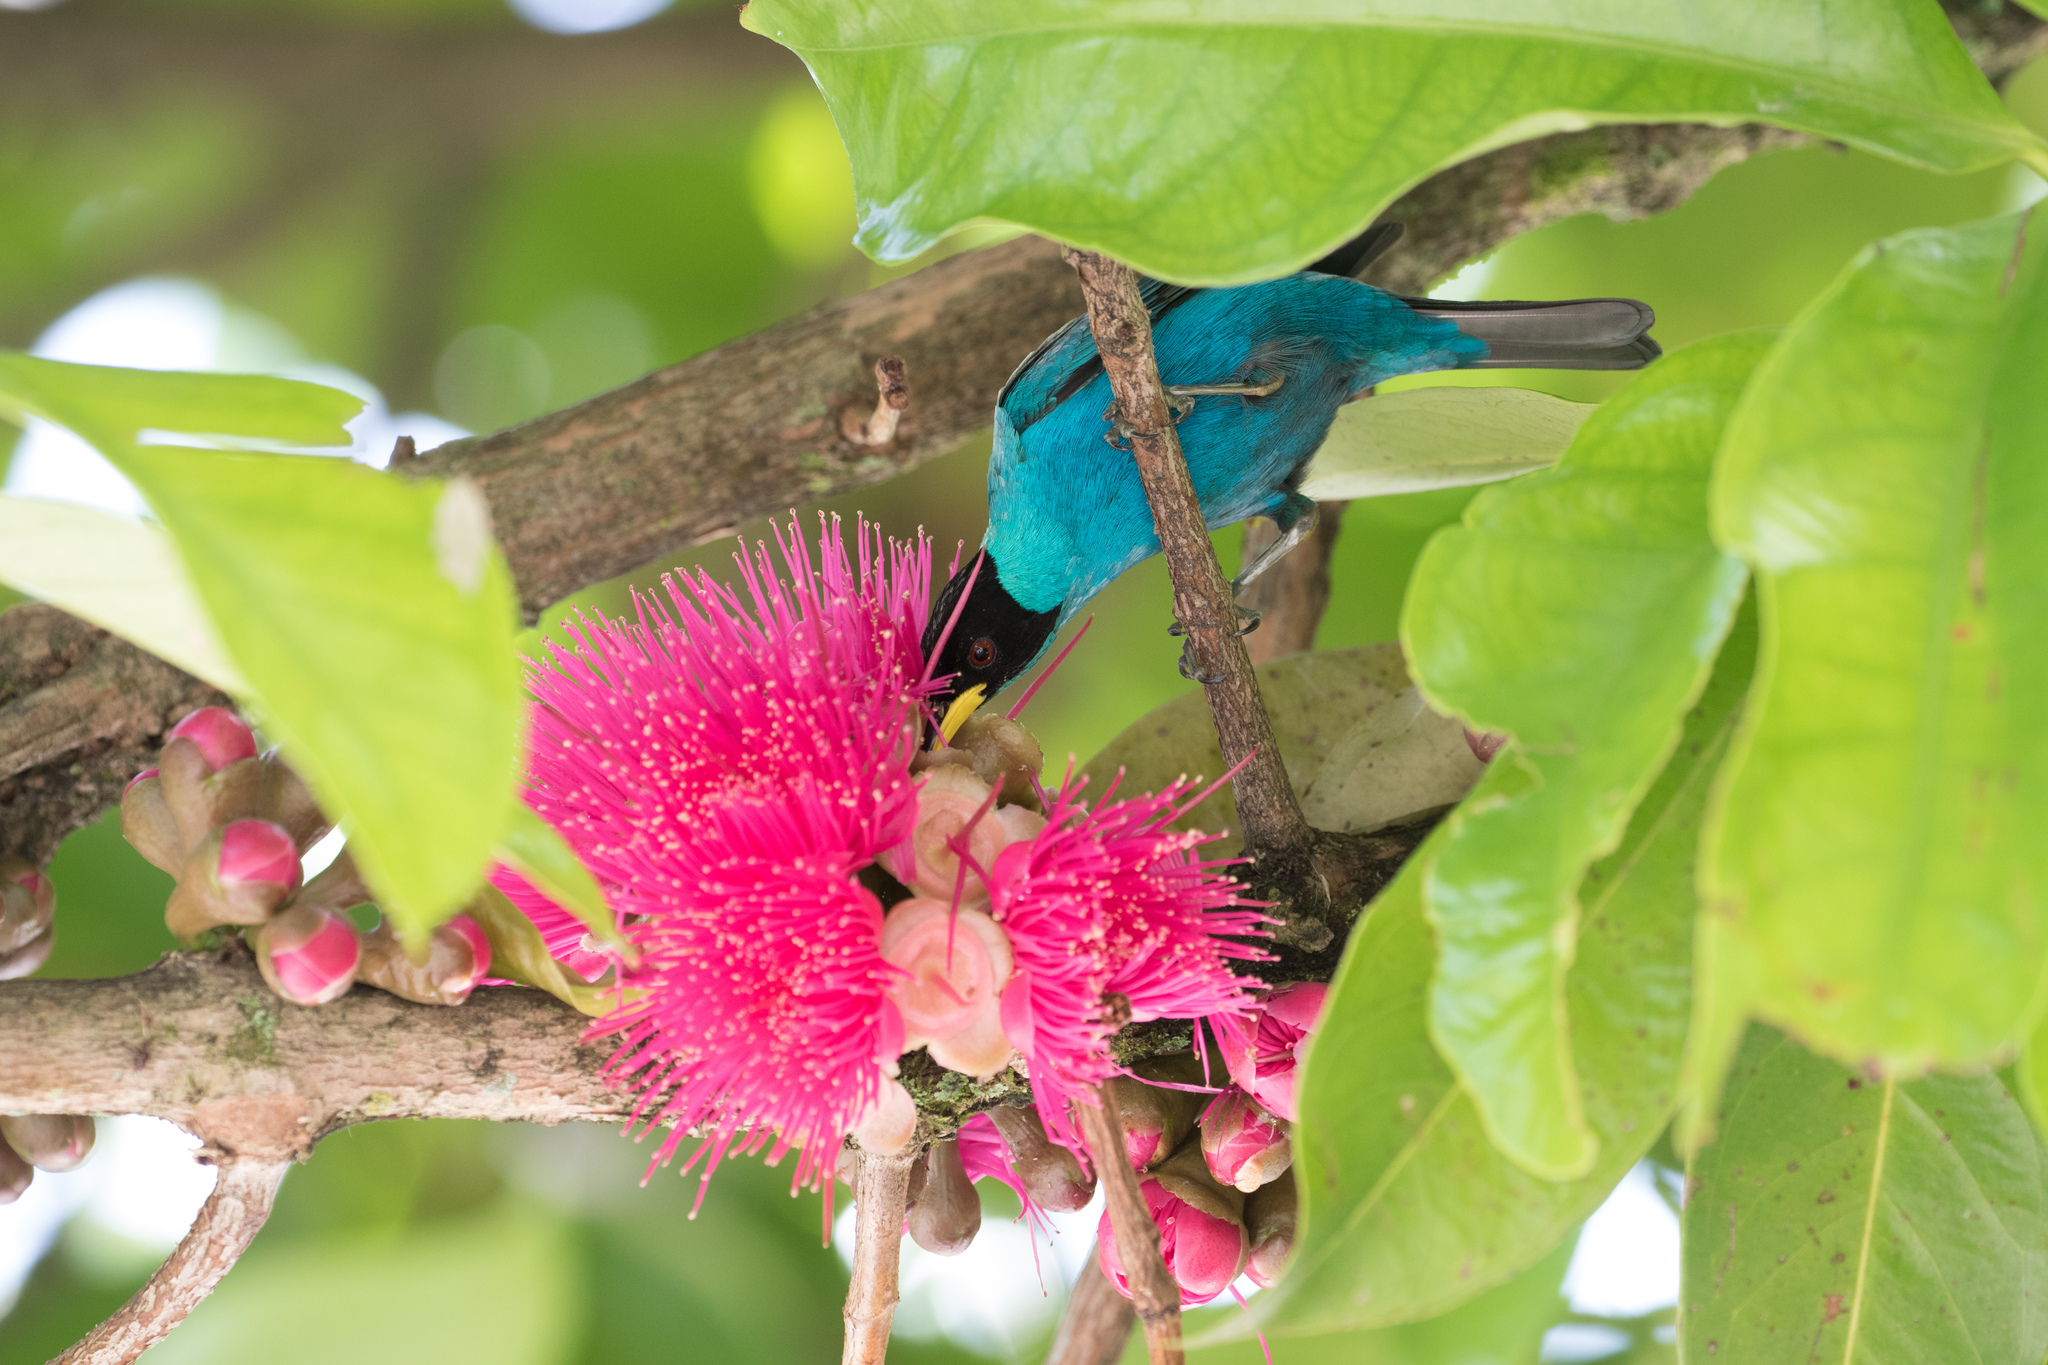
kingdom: Animalia
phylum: Chordata
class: Aves
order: Passeriformes
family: Thraupidae
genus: Chlorophanes
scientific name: Chlorophanes spiza
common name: Green honeycreeper
